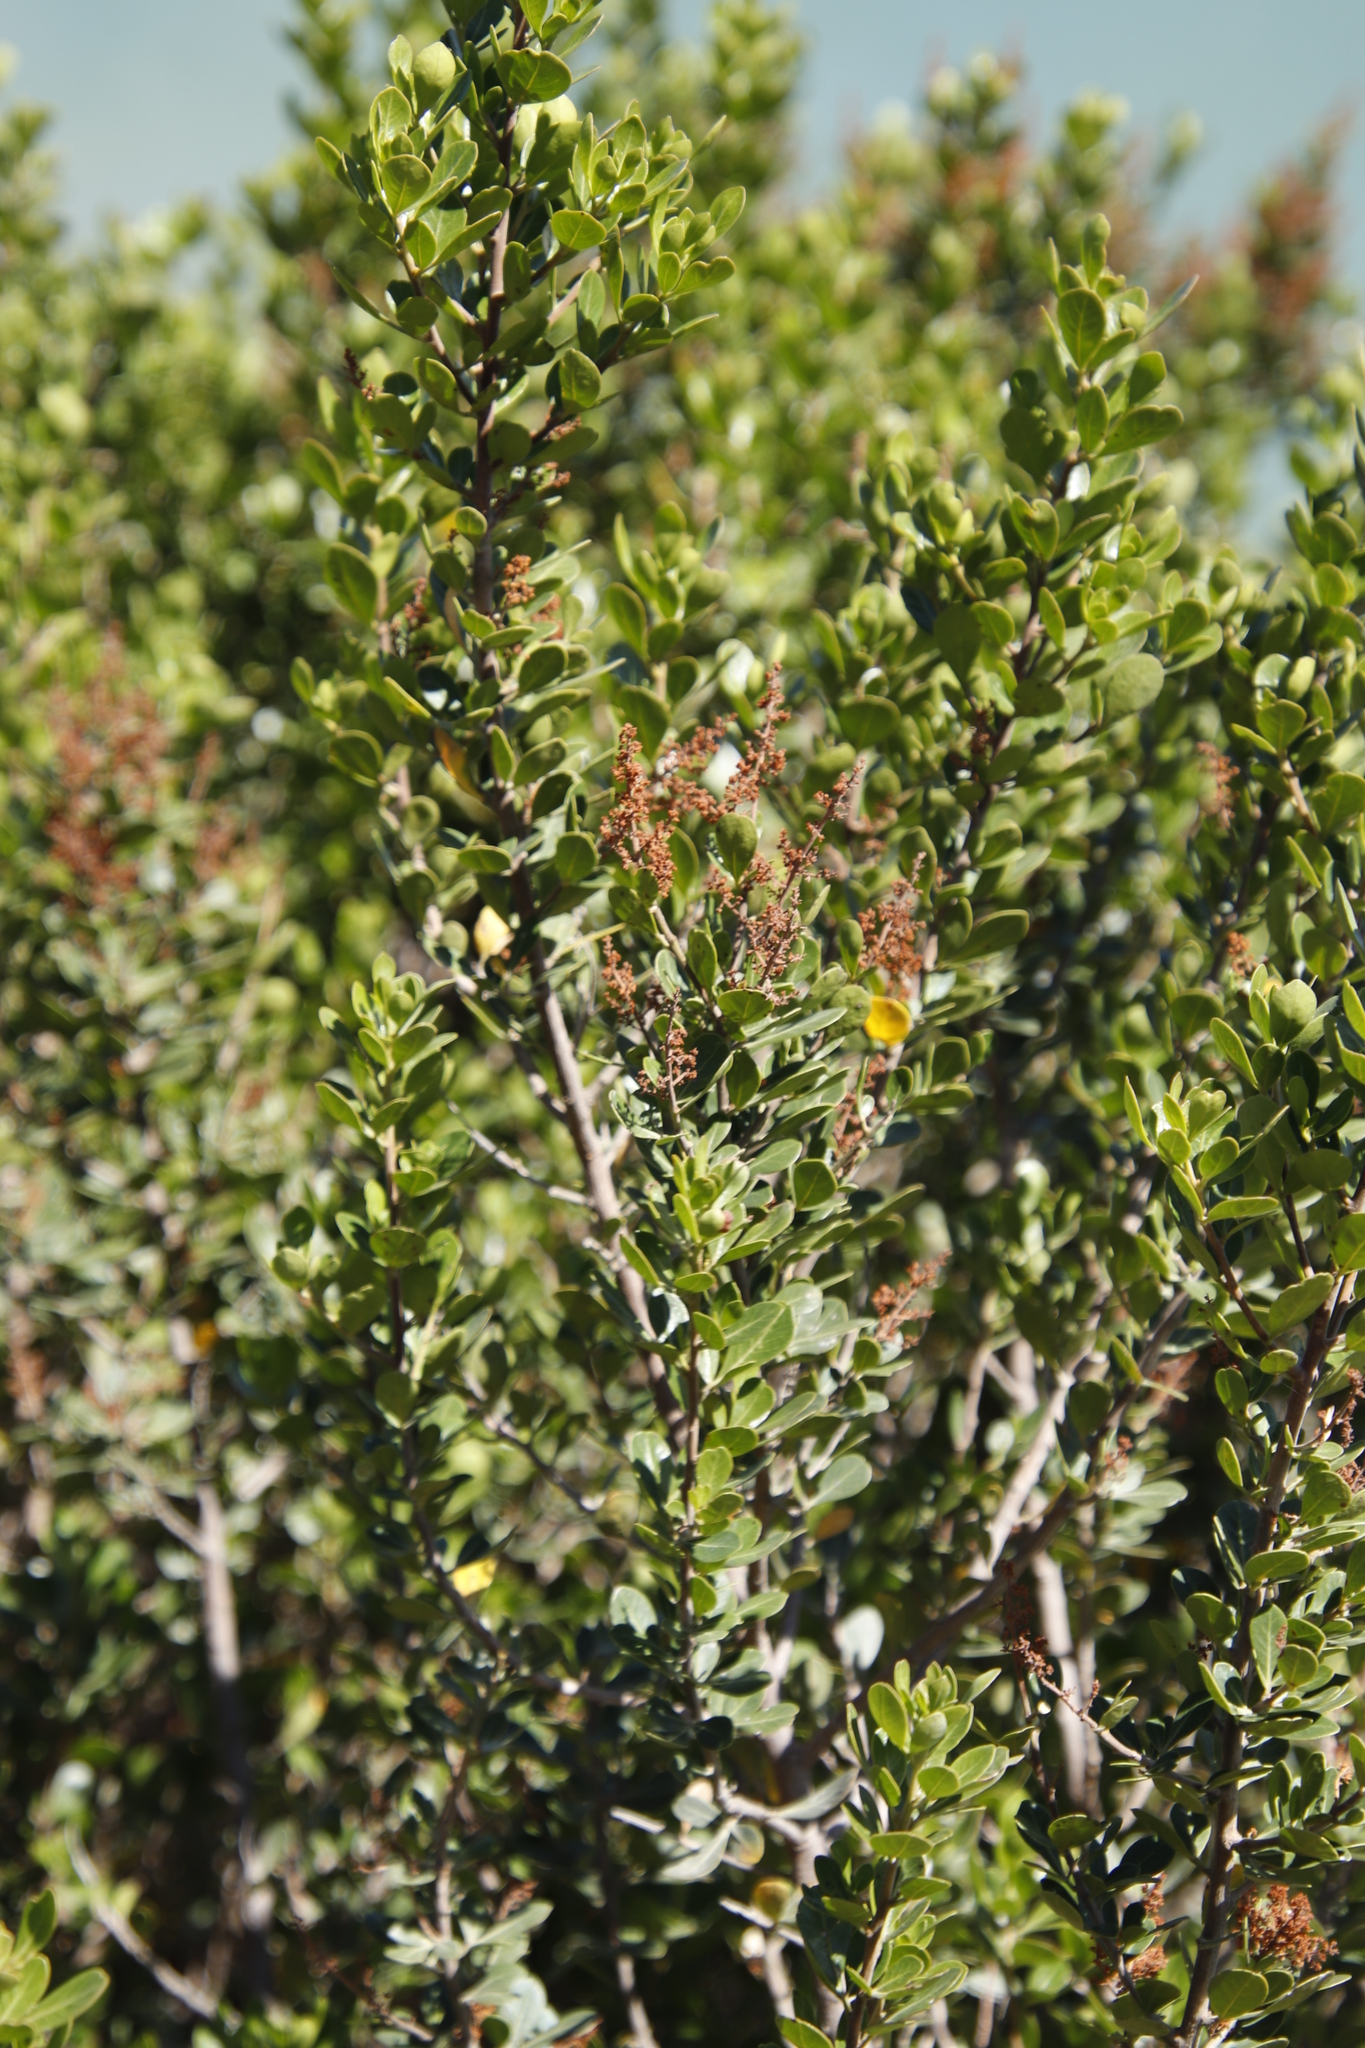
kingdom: Plantae
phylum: Tracheophyta
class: Magnoliopsida
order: Sapindales
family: Anacardiaceae
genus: Searsia
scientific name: Searsia lucida
